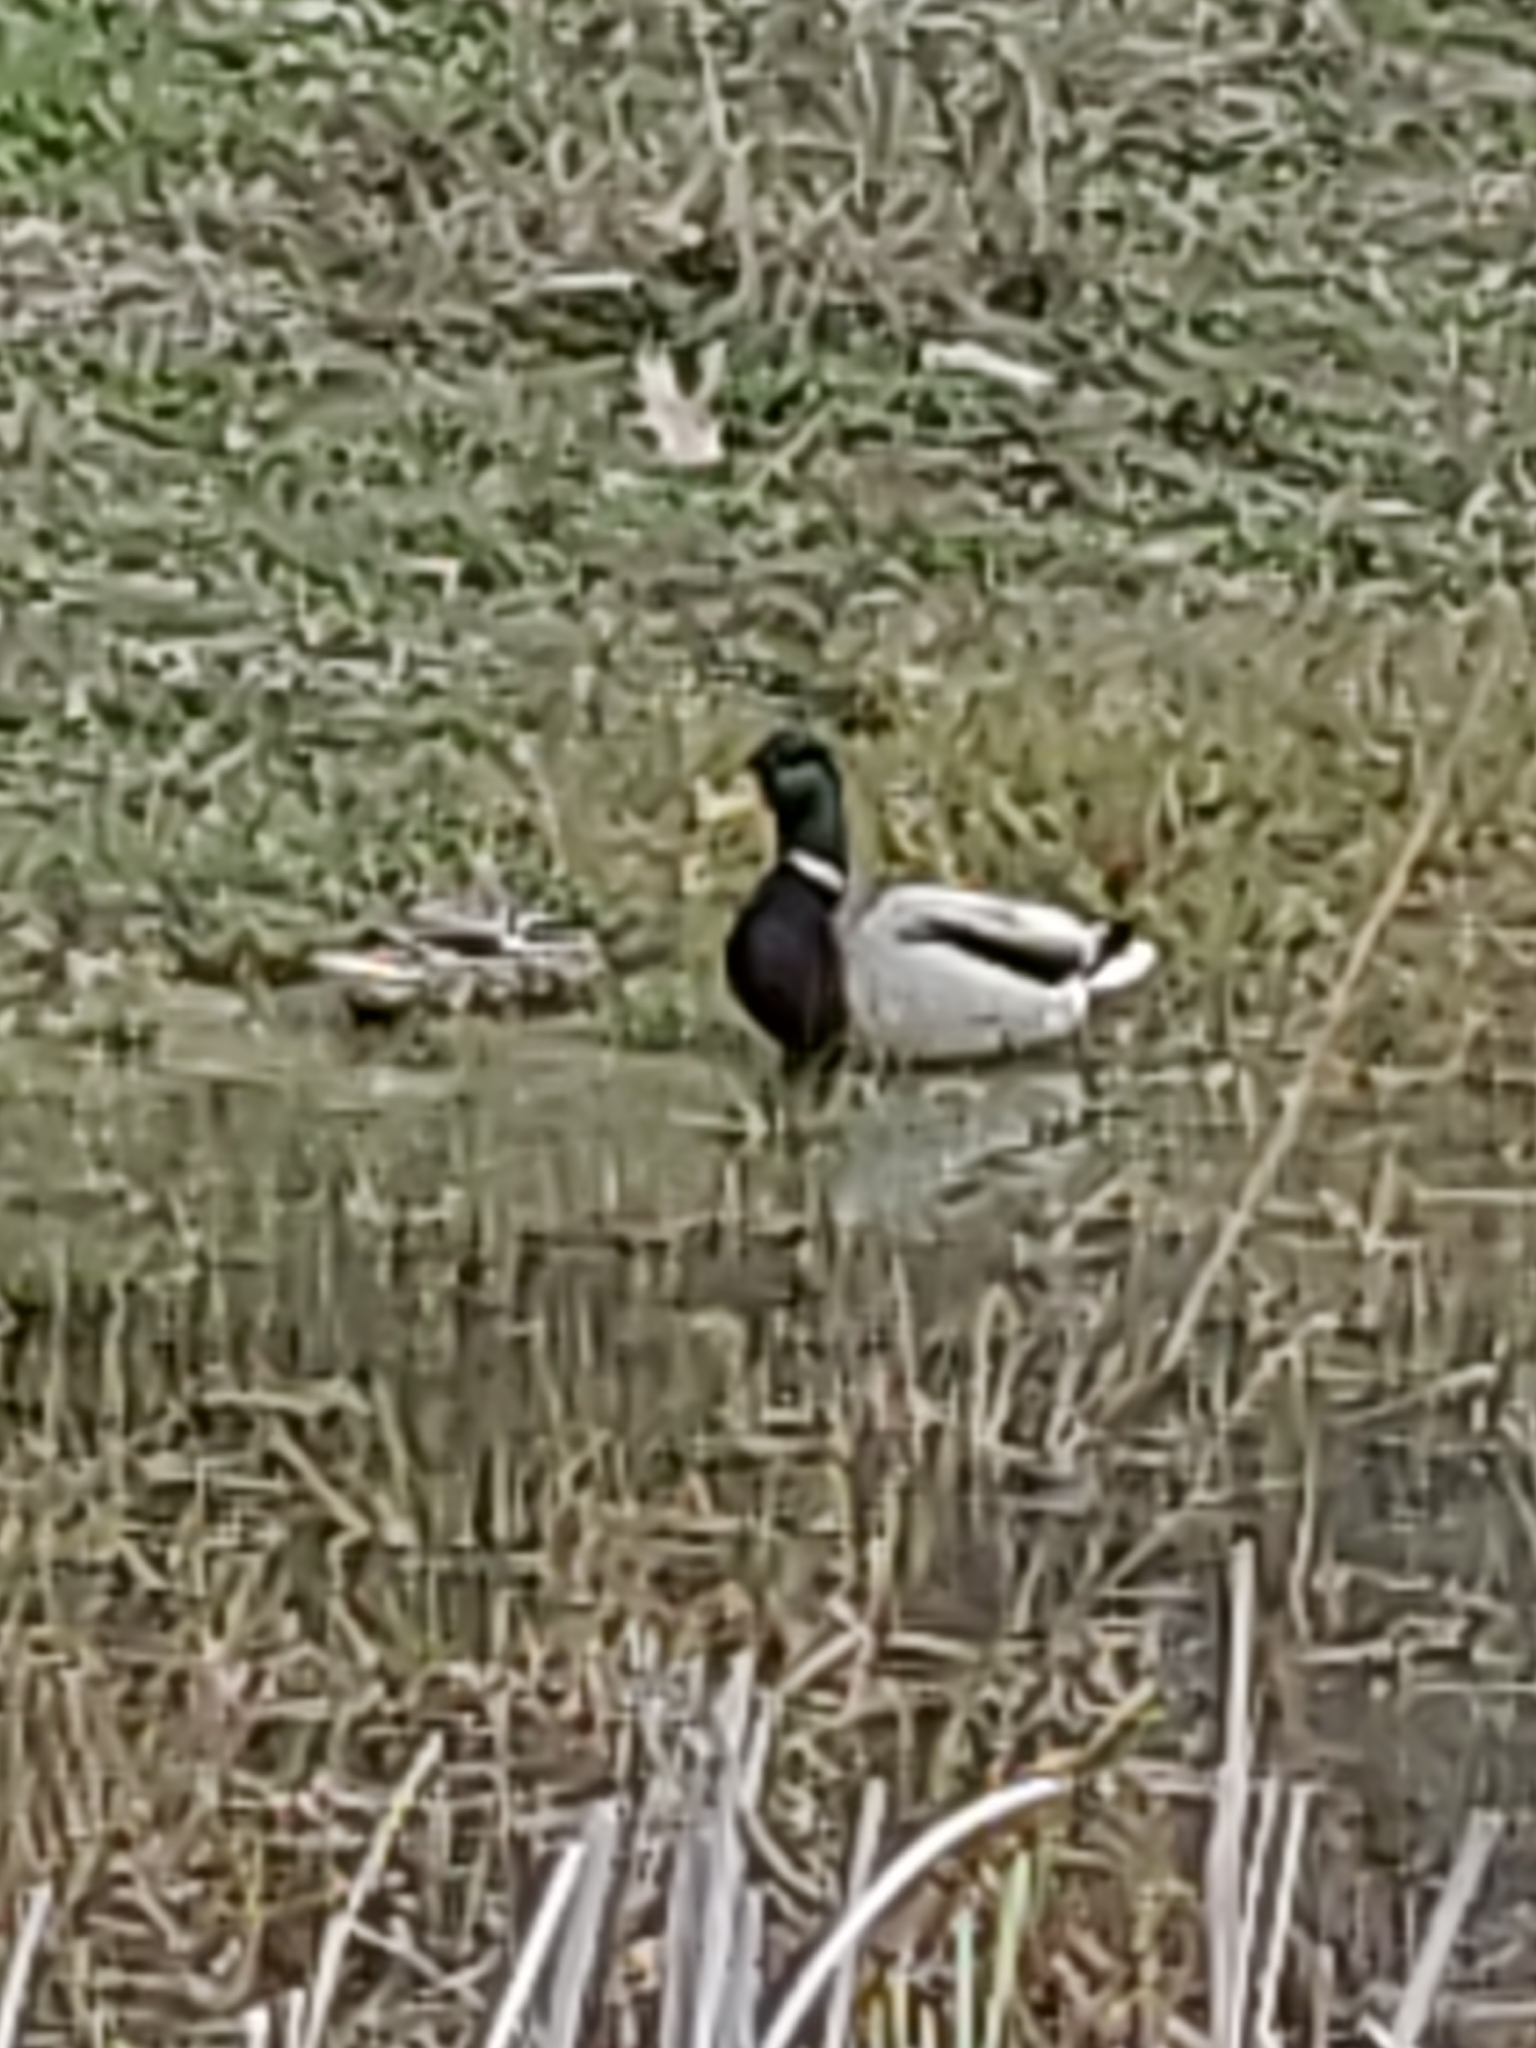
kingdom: Animalia
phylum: Chordata
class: Aves
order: Anseriformes
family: Anatidae
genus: Anas
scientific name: Anas platyrhynchos
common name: Mallard
